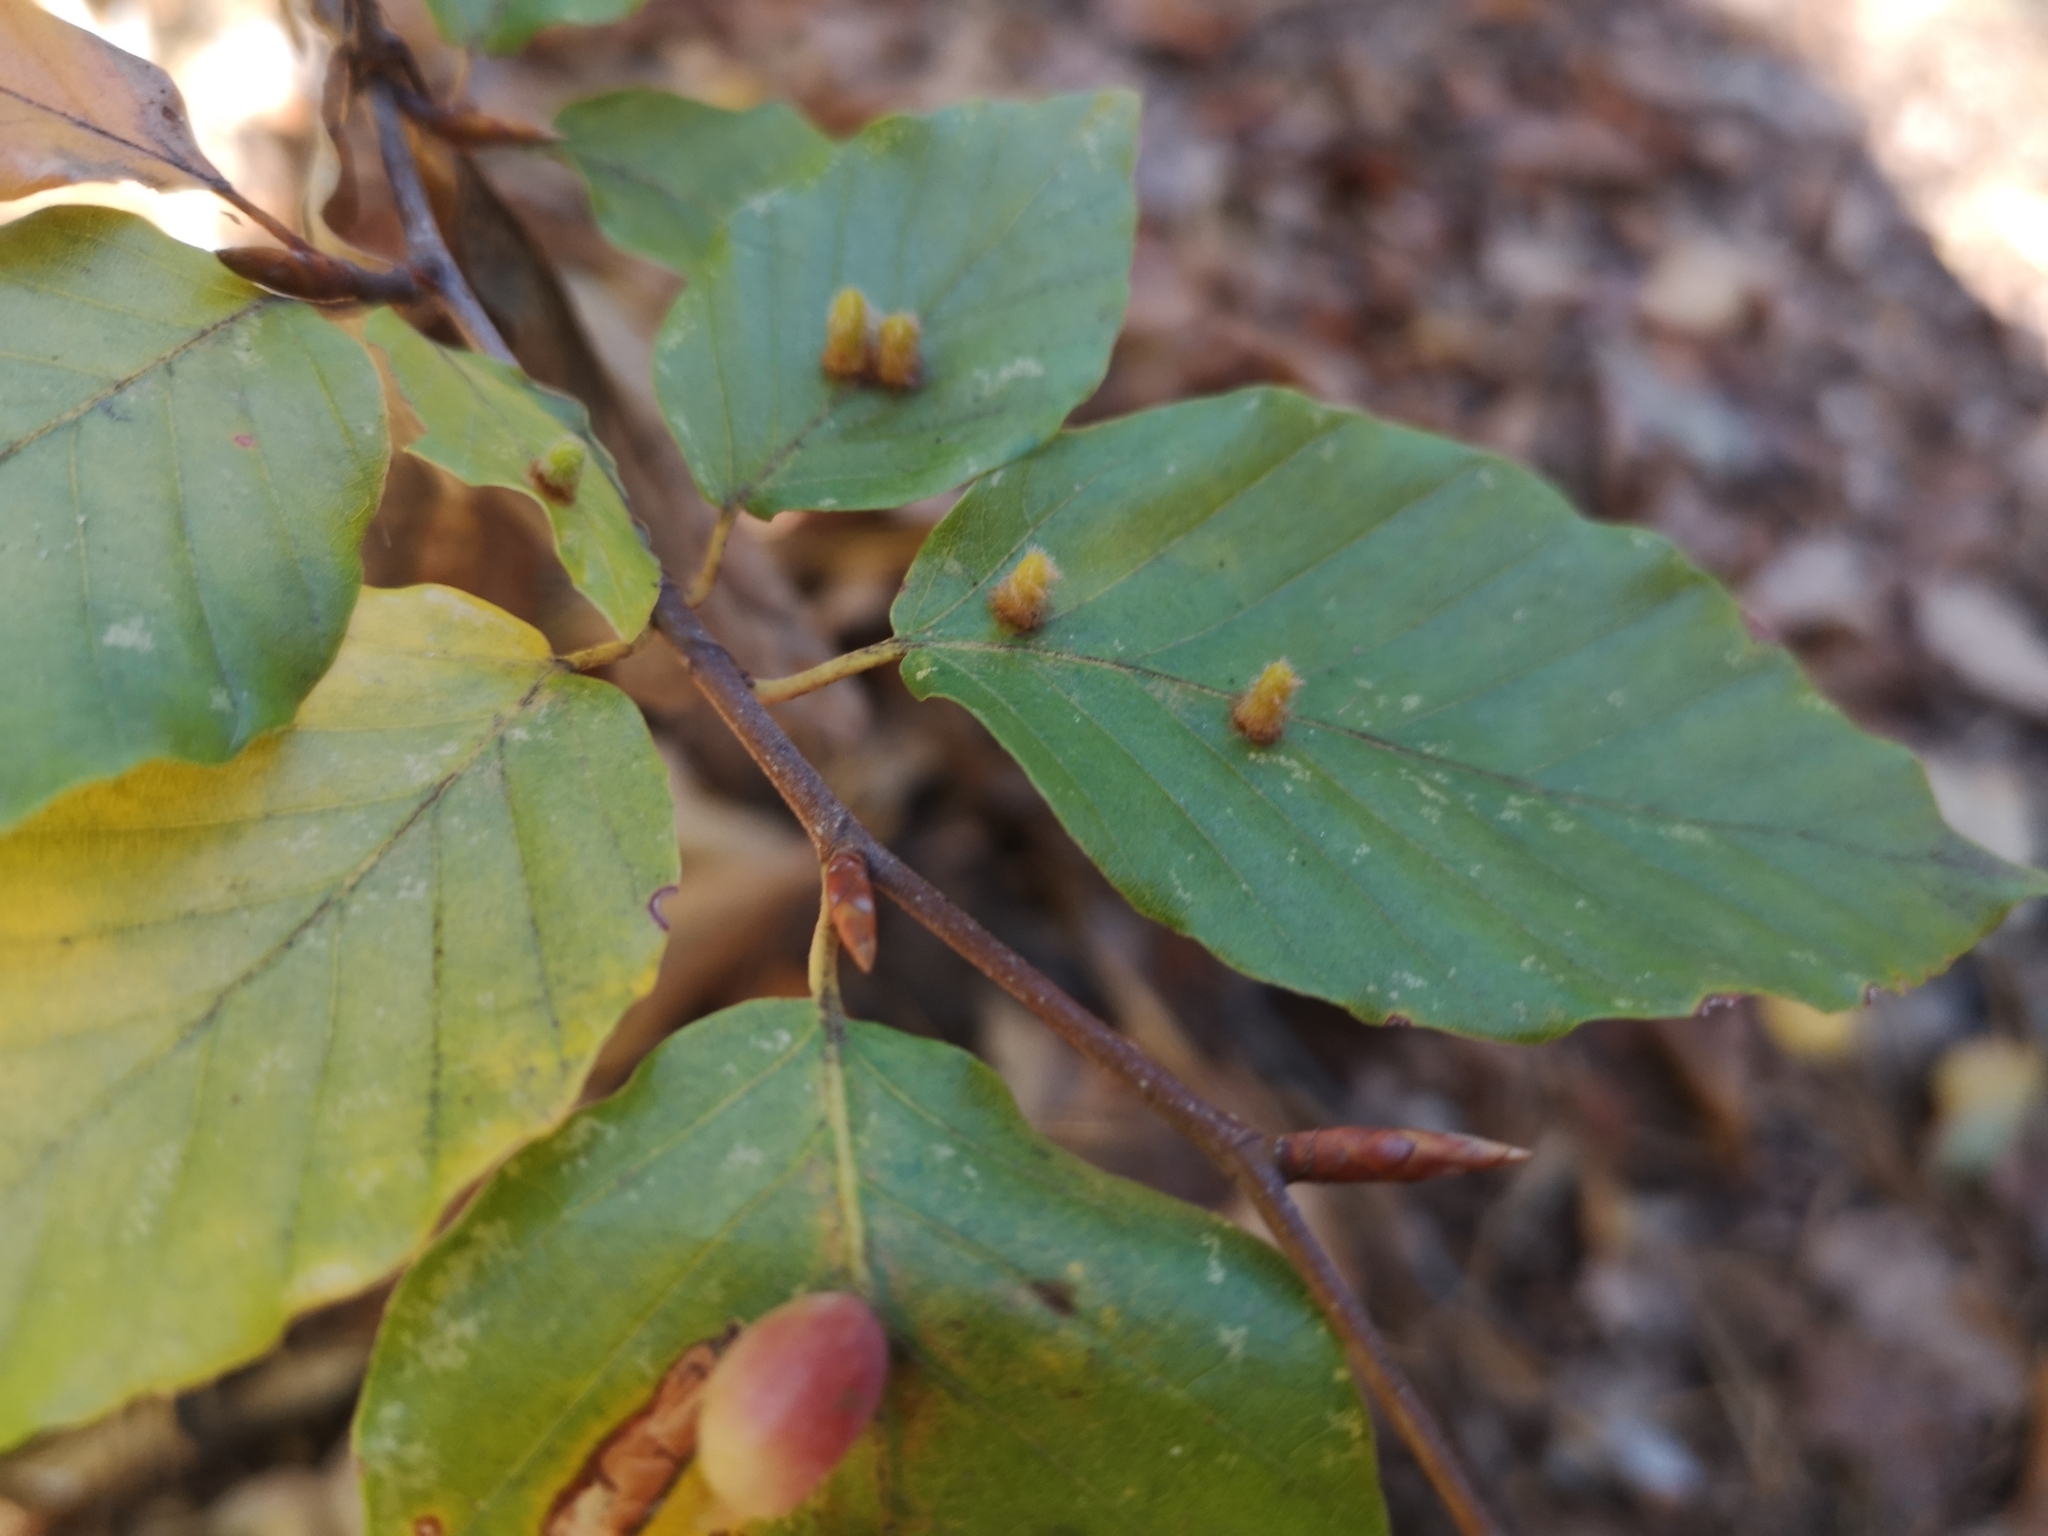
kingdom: Animalia
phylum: Arthropoda
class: Insecta
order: Diptera
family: Cecidomyiidae
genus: Hartigiola
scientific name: Hartigiola annulipes
